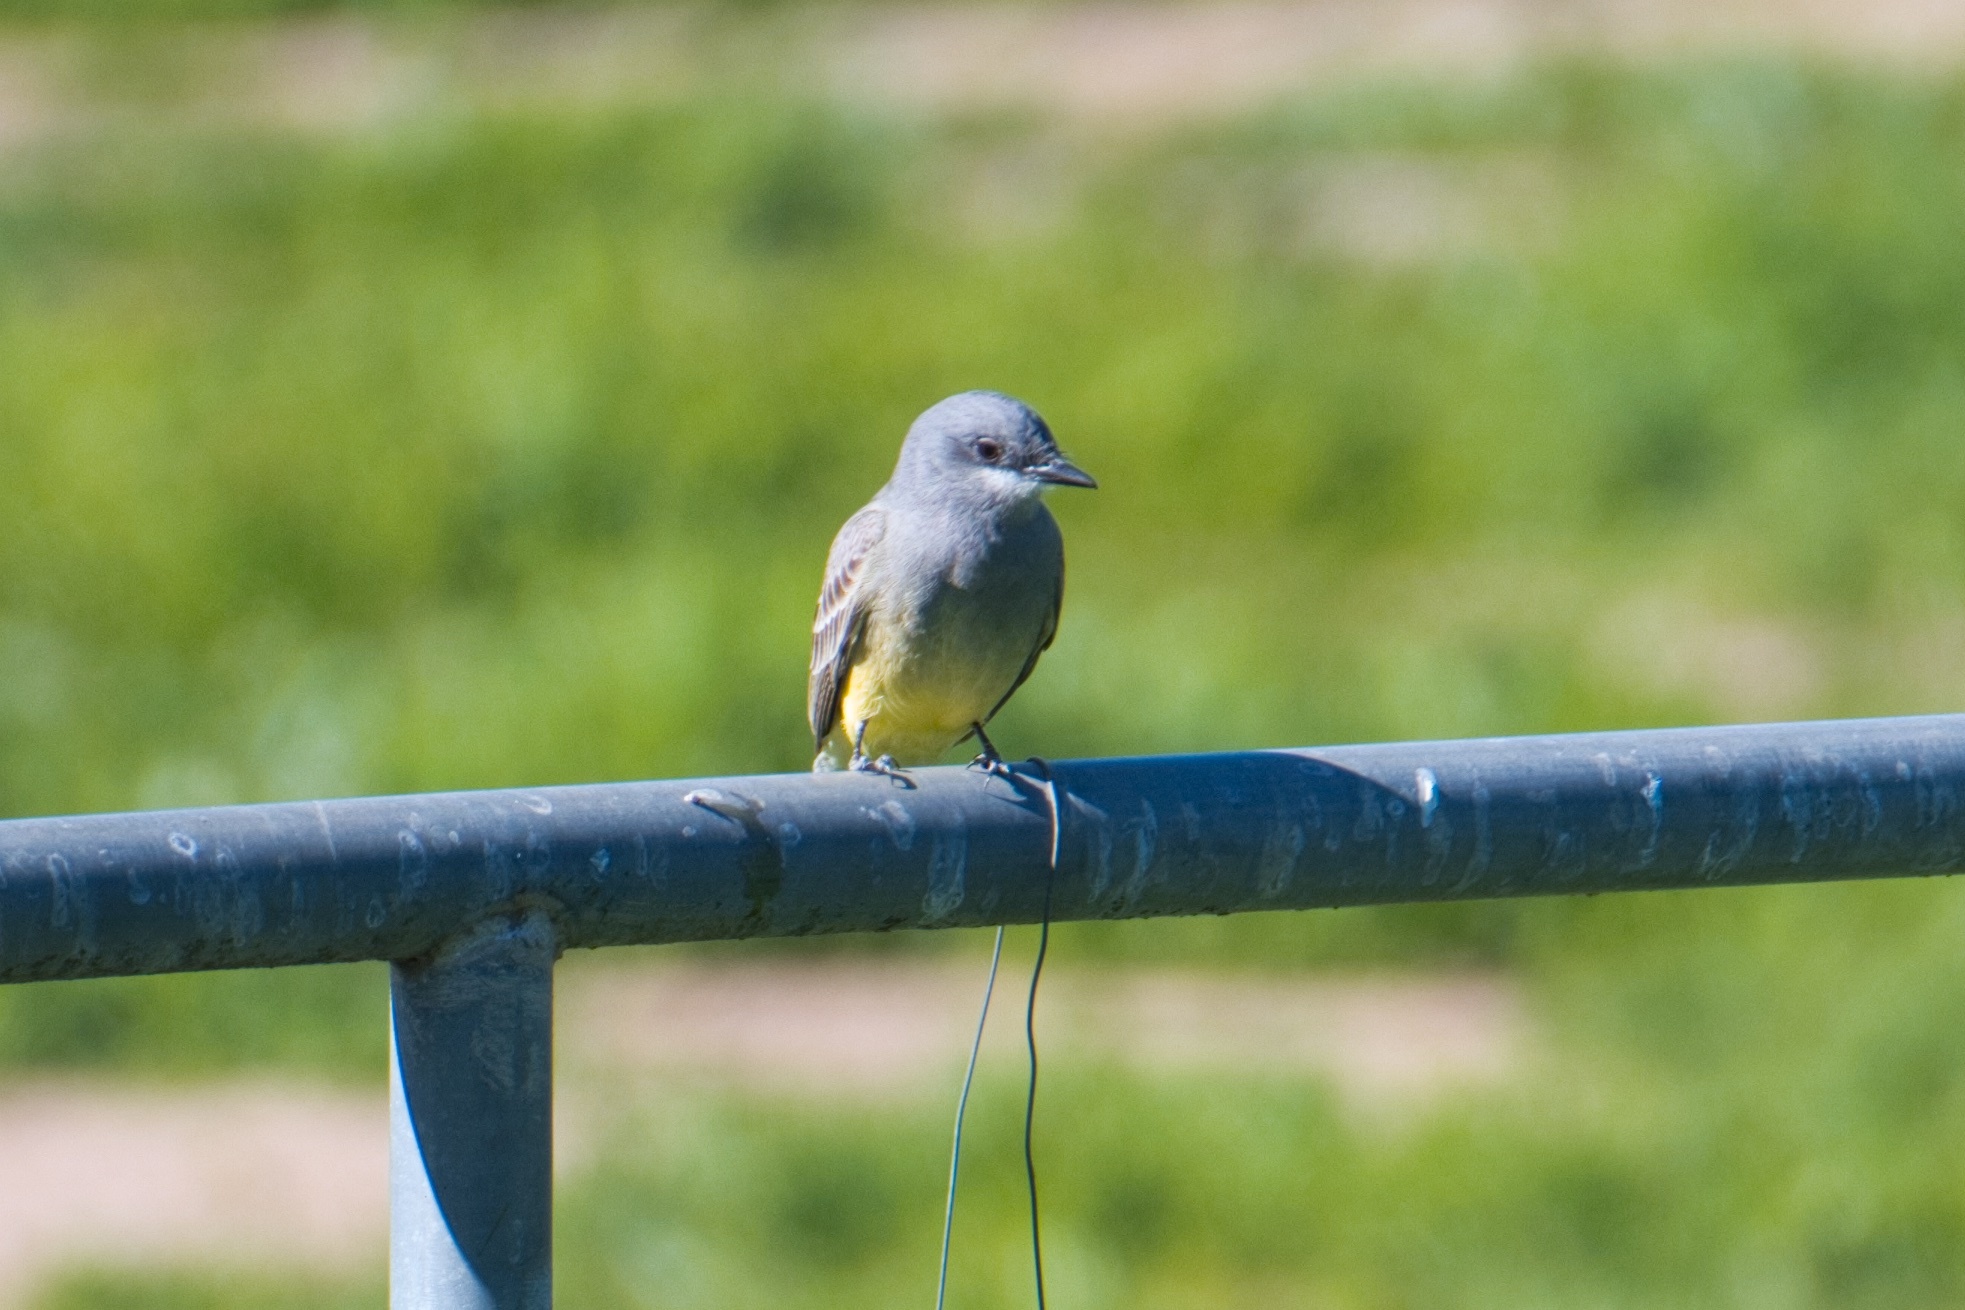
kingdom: Animalia
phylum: Chordata
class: Aves
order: Passeriformes
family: Tyrannidae
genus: Tyrannus
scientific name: Tyrannus vociferans
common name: Cassin's kingbird
